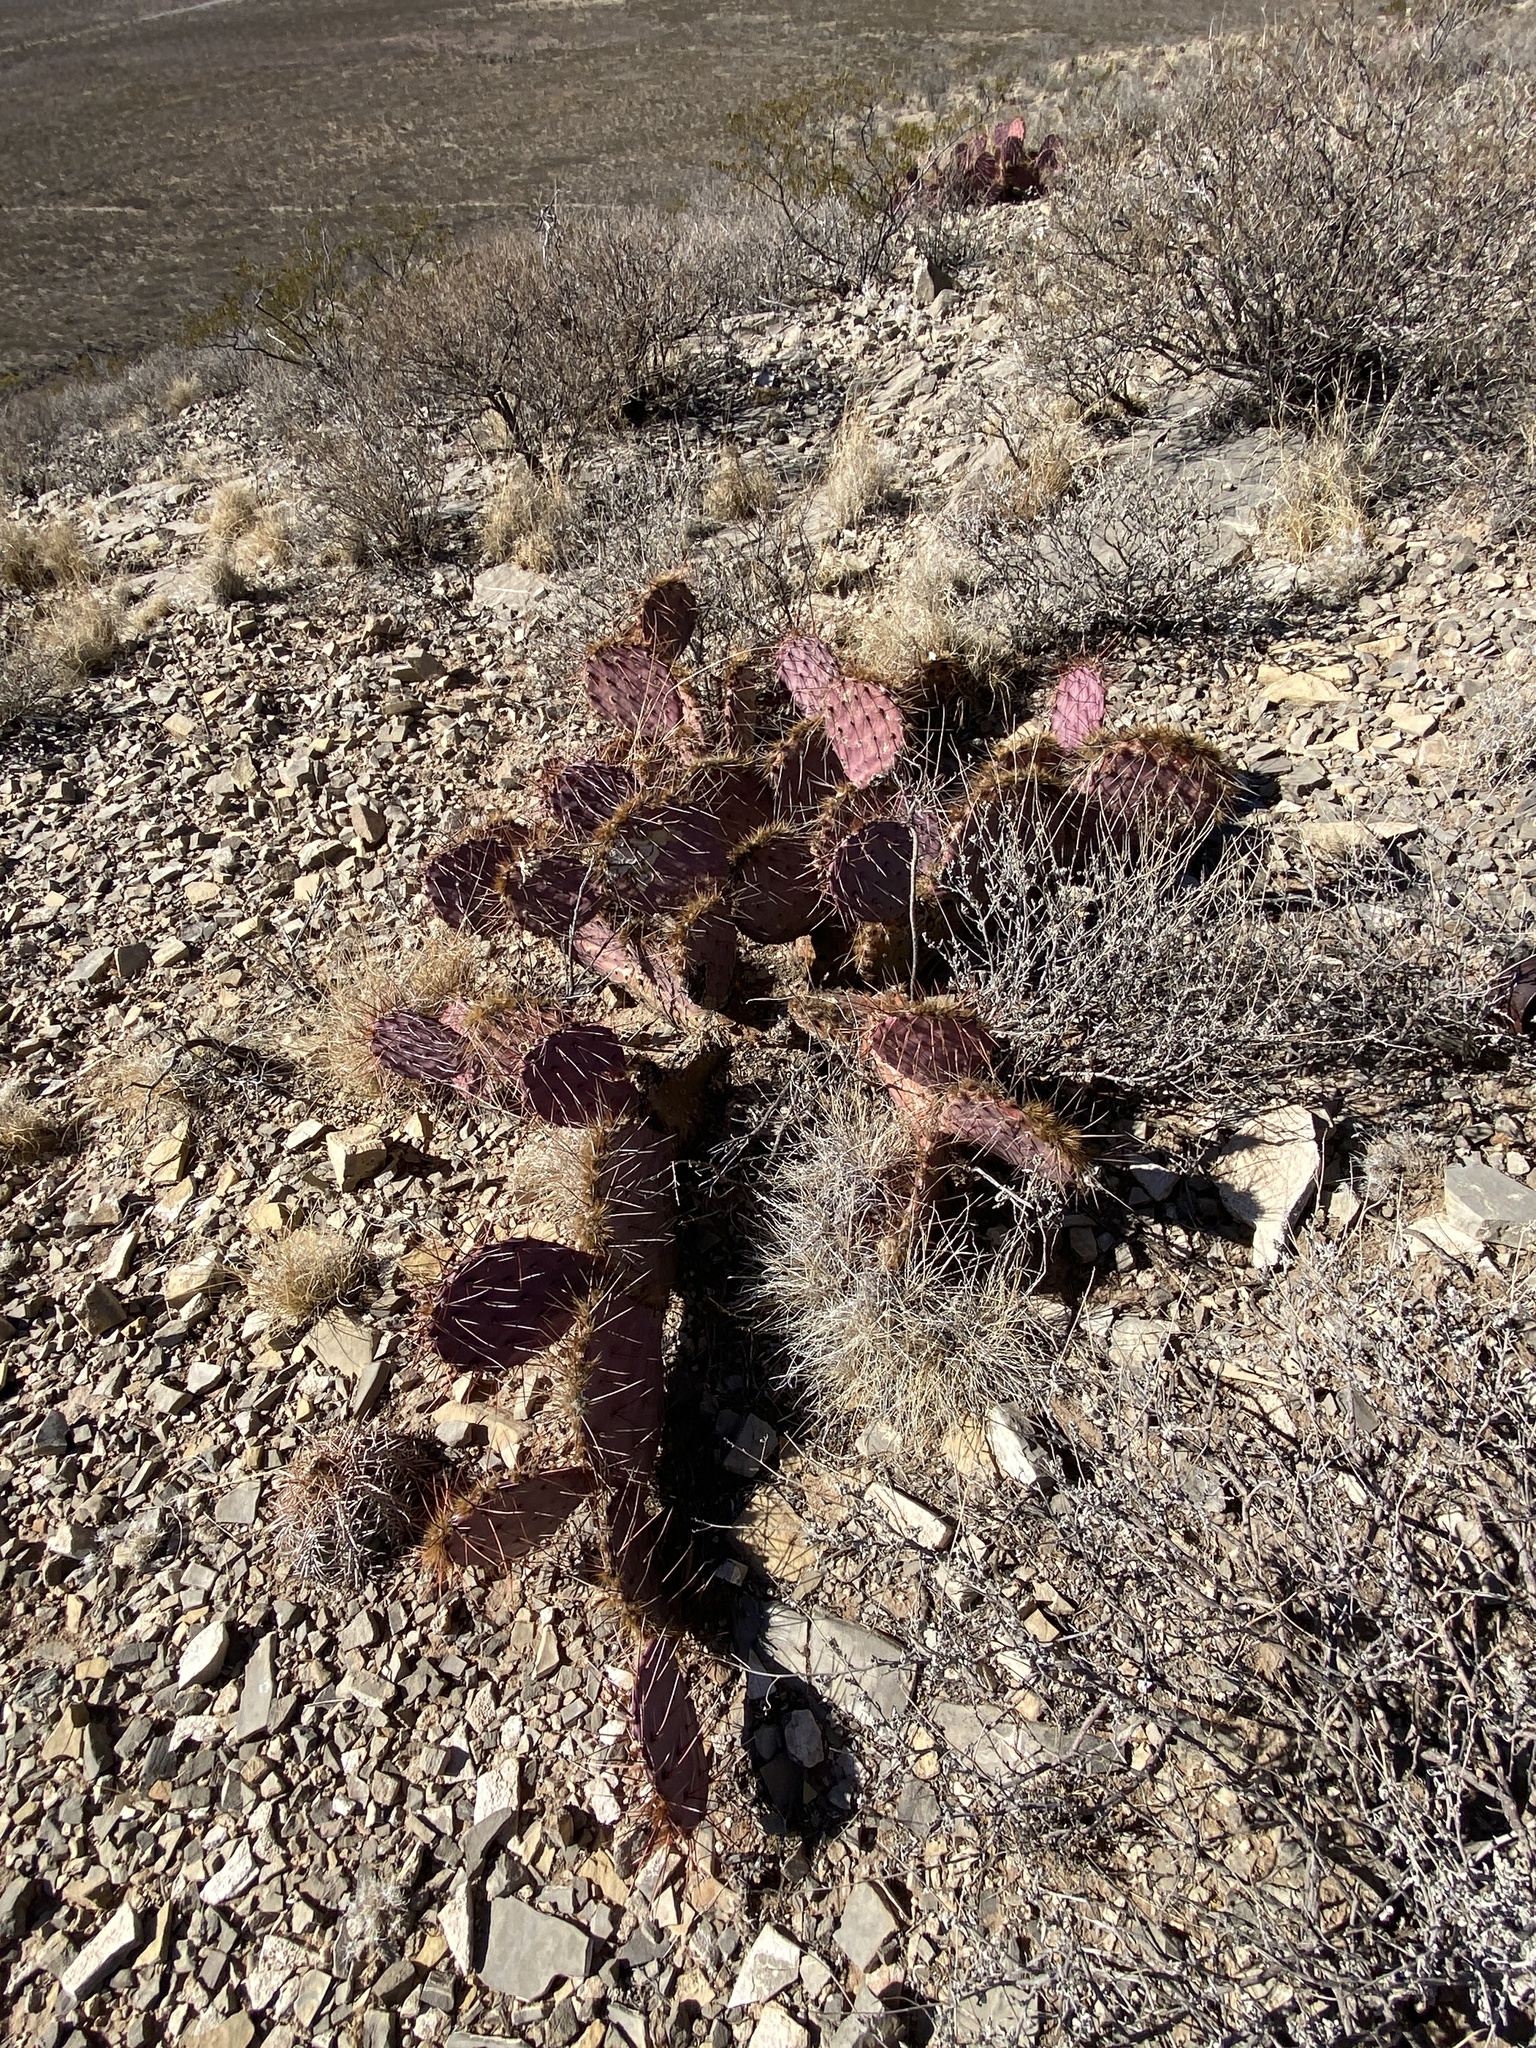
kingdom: Plantae
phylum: Tracheophyta
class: Magnoliopsida
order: Caryophyllales
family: Cactaceae
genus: Opuntia
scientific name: Opuntia macrocentra
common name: Purple prickly-pear
